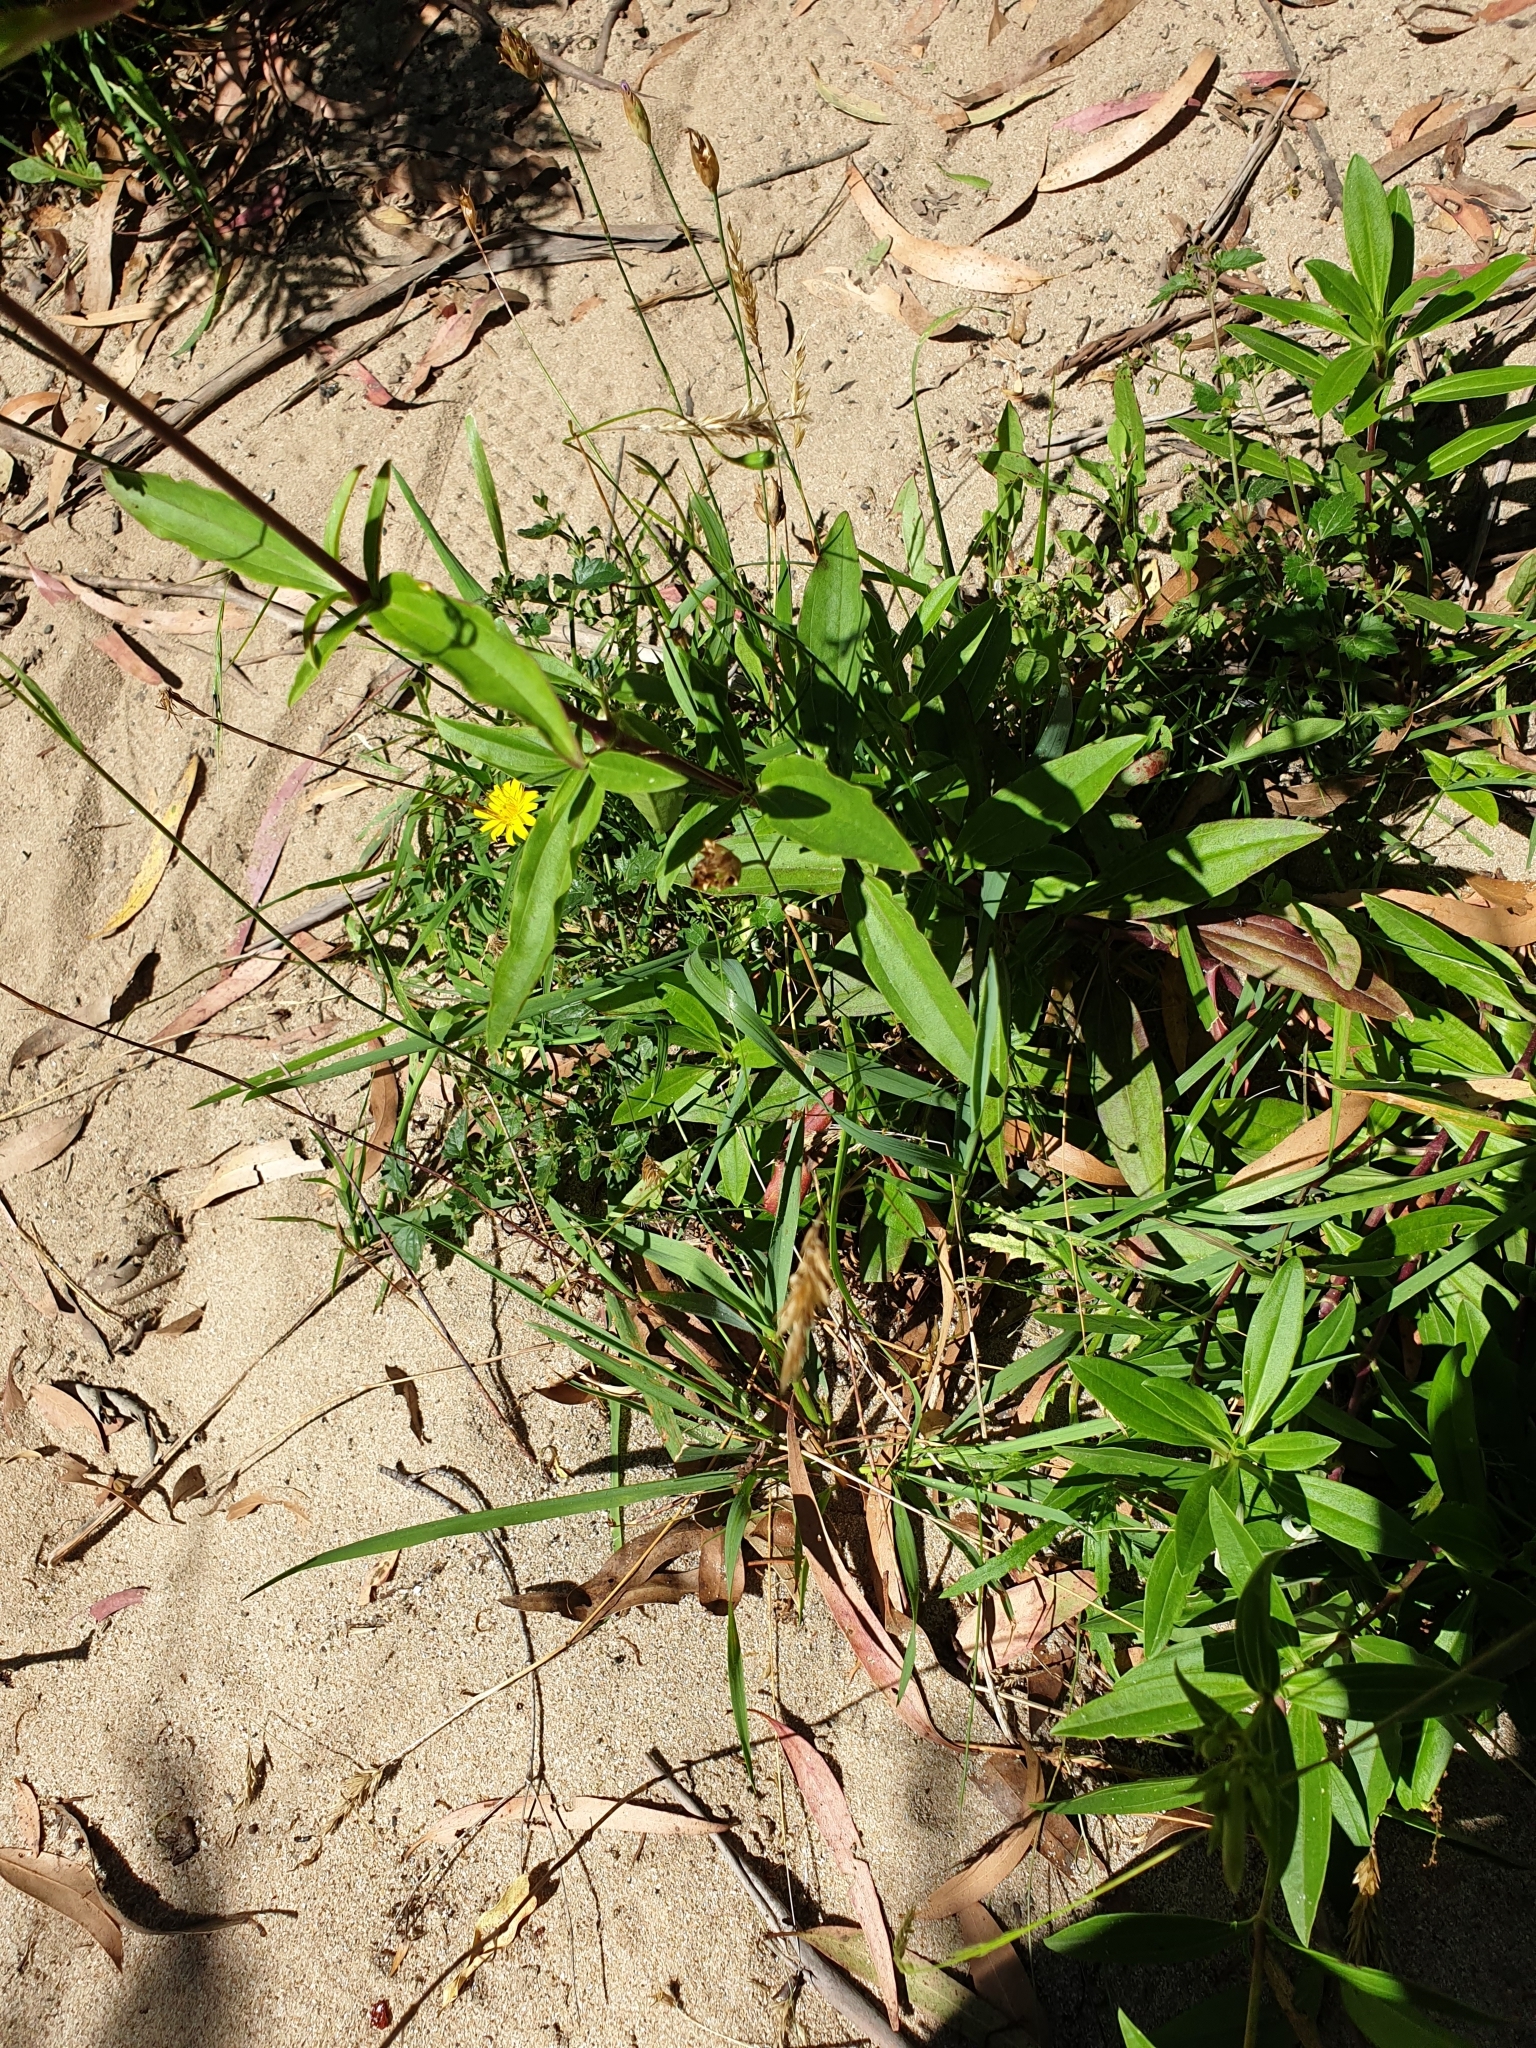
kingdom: Plantae
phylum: Tracheophyta
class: Magnoliopsida
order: Caryophyllales
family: Caryophyllaceae
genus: Saponaria
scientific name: Saponaria officinalis
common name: Soapwort
